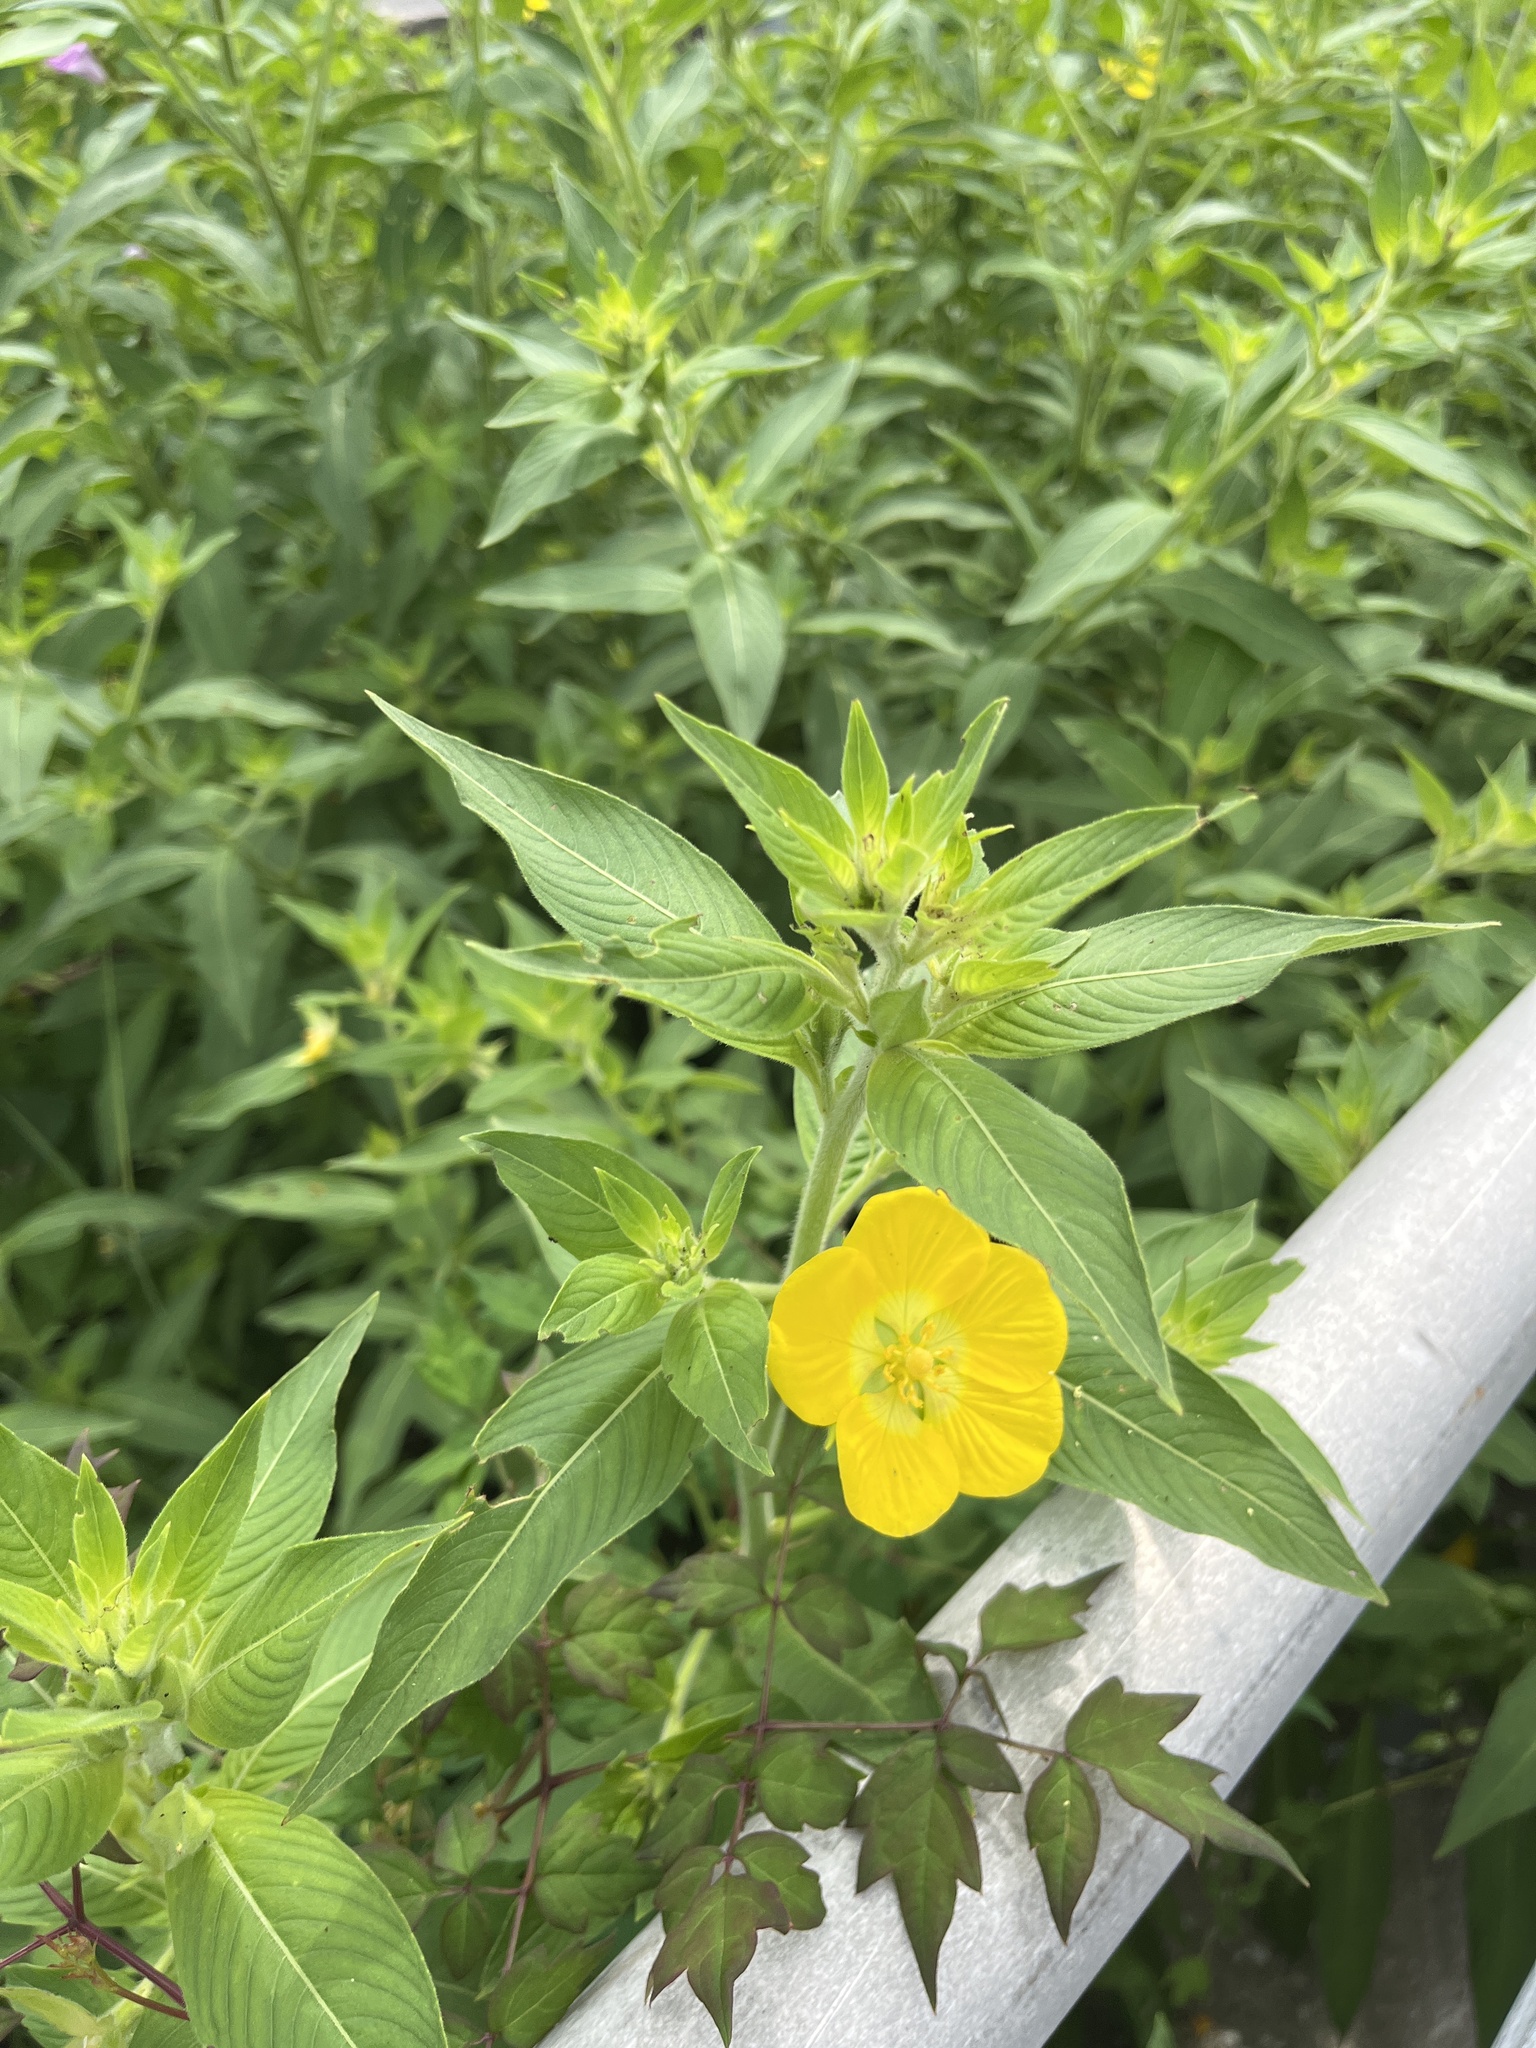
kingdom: Plantae
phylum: Tracheophyta
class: Magnoliopsida
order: Myrtales
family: Onagraceae
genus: Ludwigia
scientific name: Ludwigia peruviana
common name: Peruvian primrose-willow
